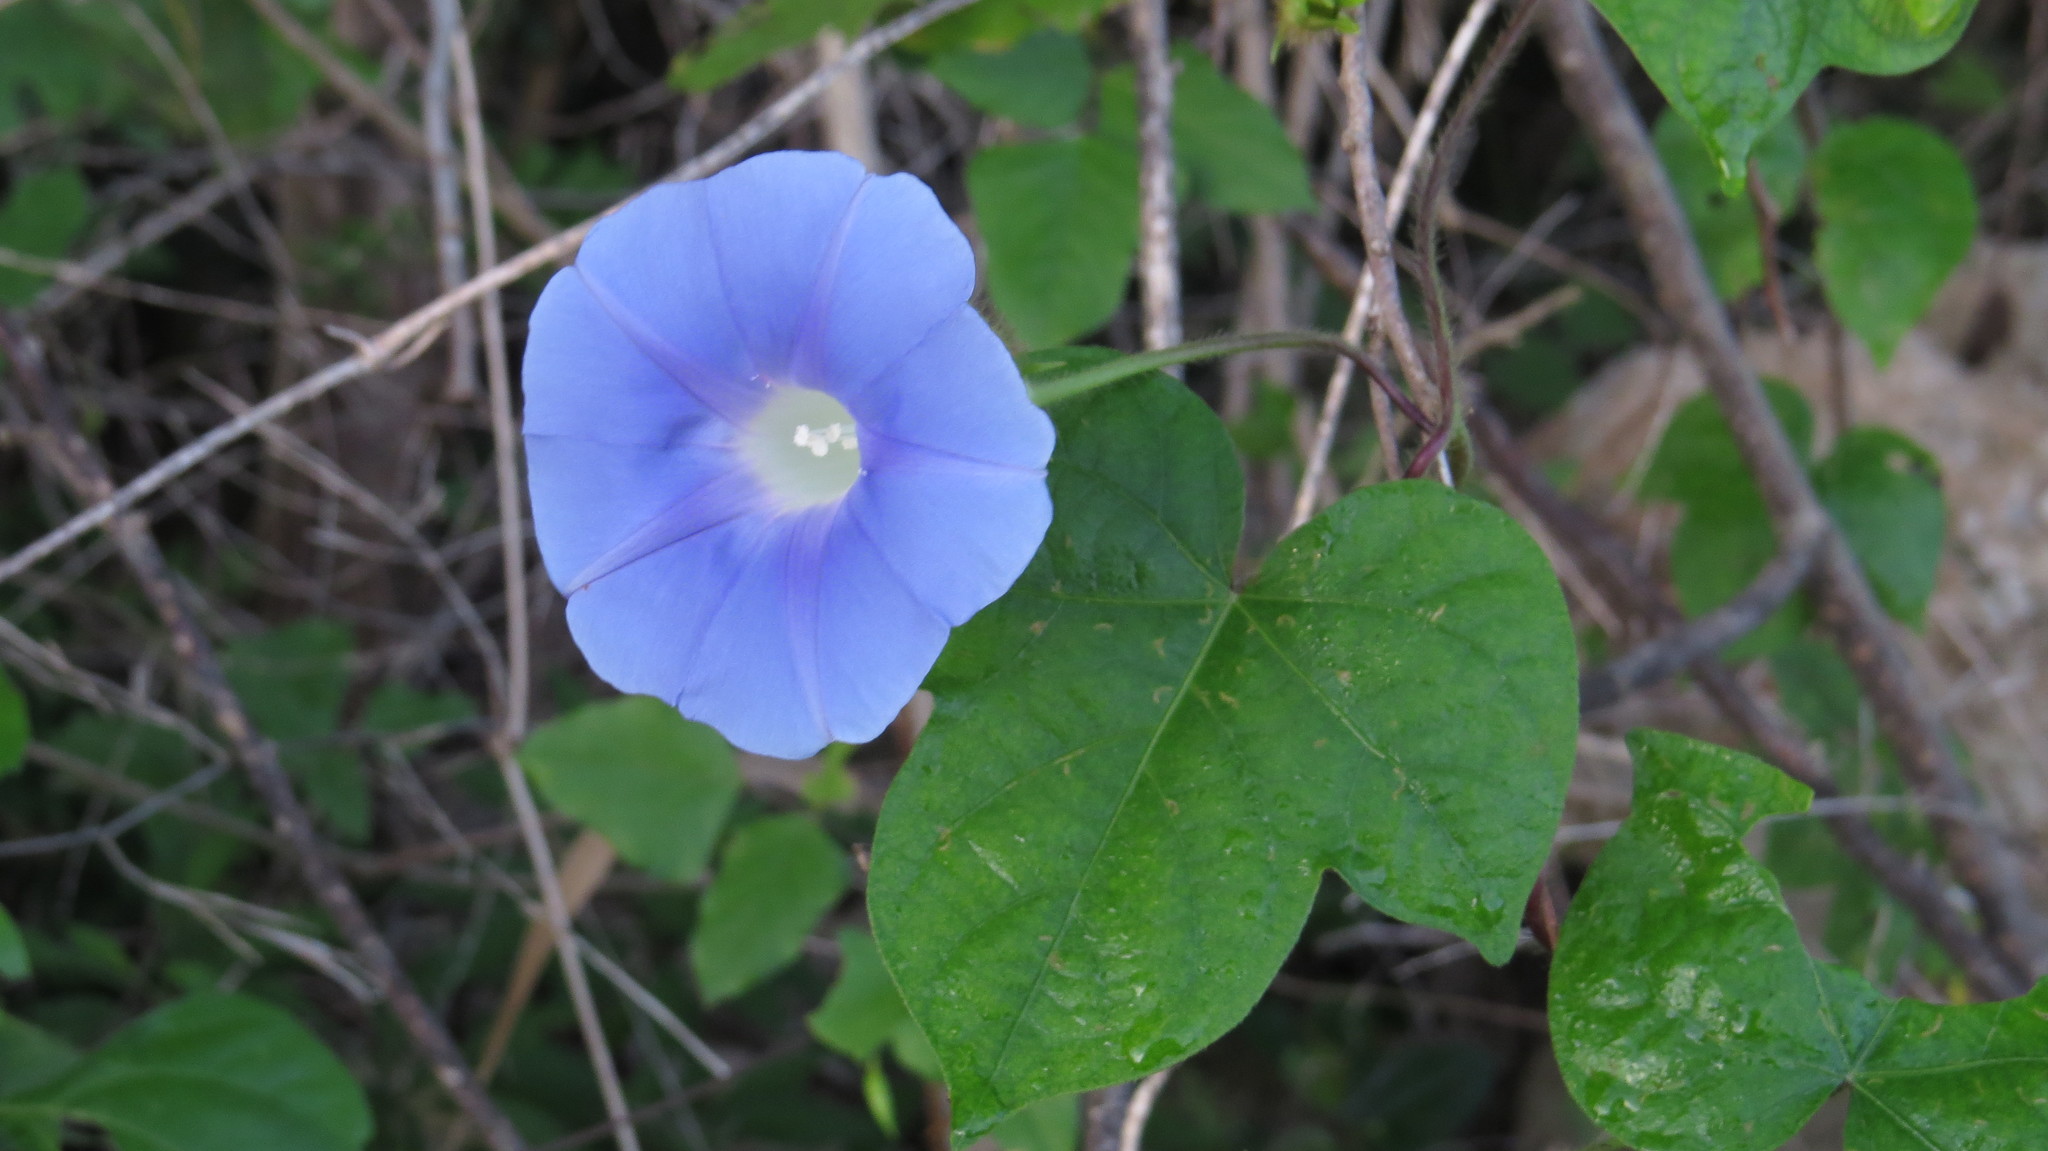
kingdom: Plantae
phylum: Tracheophyta
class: Magnoliopsida
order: Solanales
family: Convolvulaceae
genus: Ipomoea
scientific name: Ipomoea nil
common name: Japanese morning-glory
